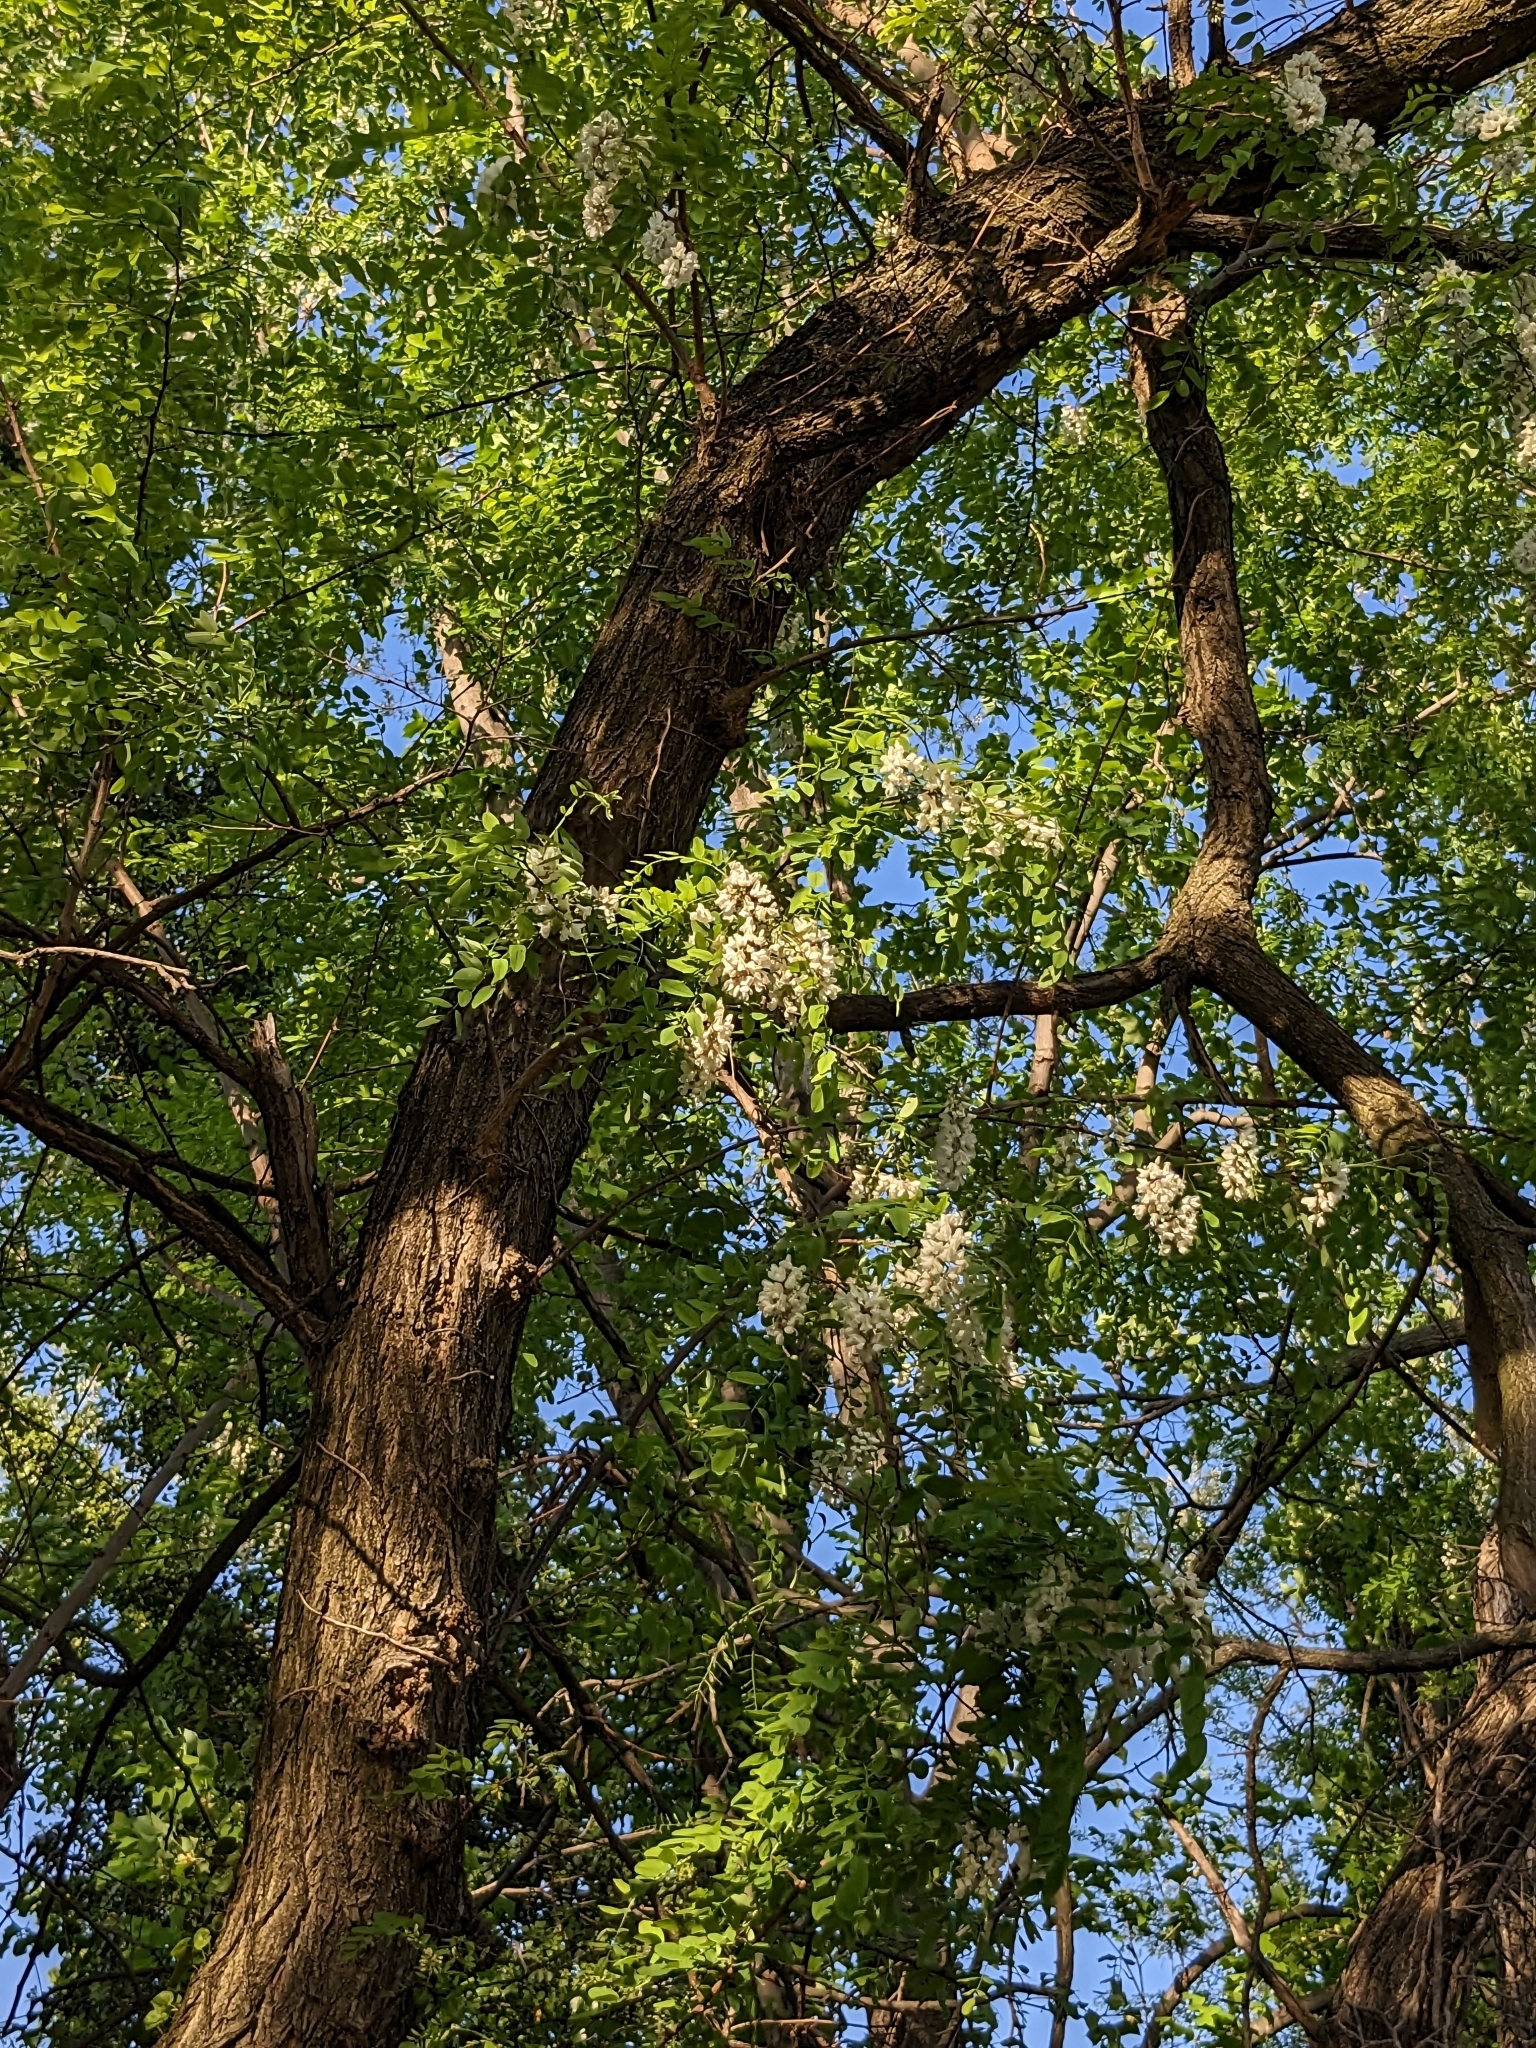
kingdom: Plantae
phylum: Tracheophyta
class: Magnoliopsida
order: Fabales
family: Fabaceae
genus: Robinia
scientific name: Robinia pseudoacacia
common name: Black locust
